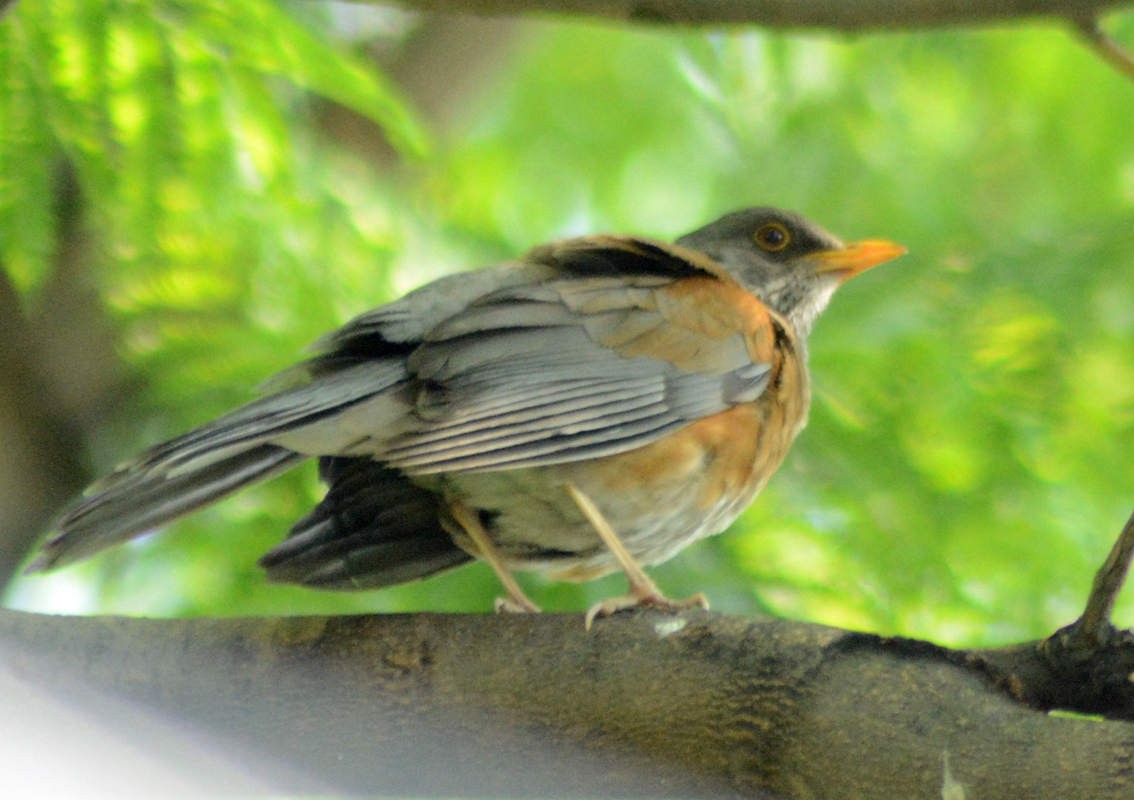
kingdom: Animalia
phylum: Chordata
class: Aves
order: Passeriformes
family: Turdidae
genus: Turdus
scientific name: Turdus rufopalliatus
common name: Rufous-backed robin
